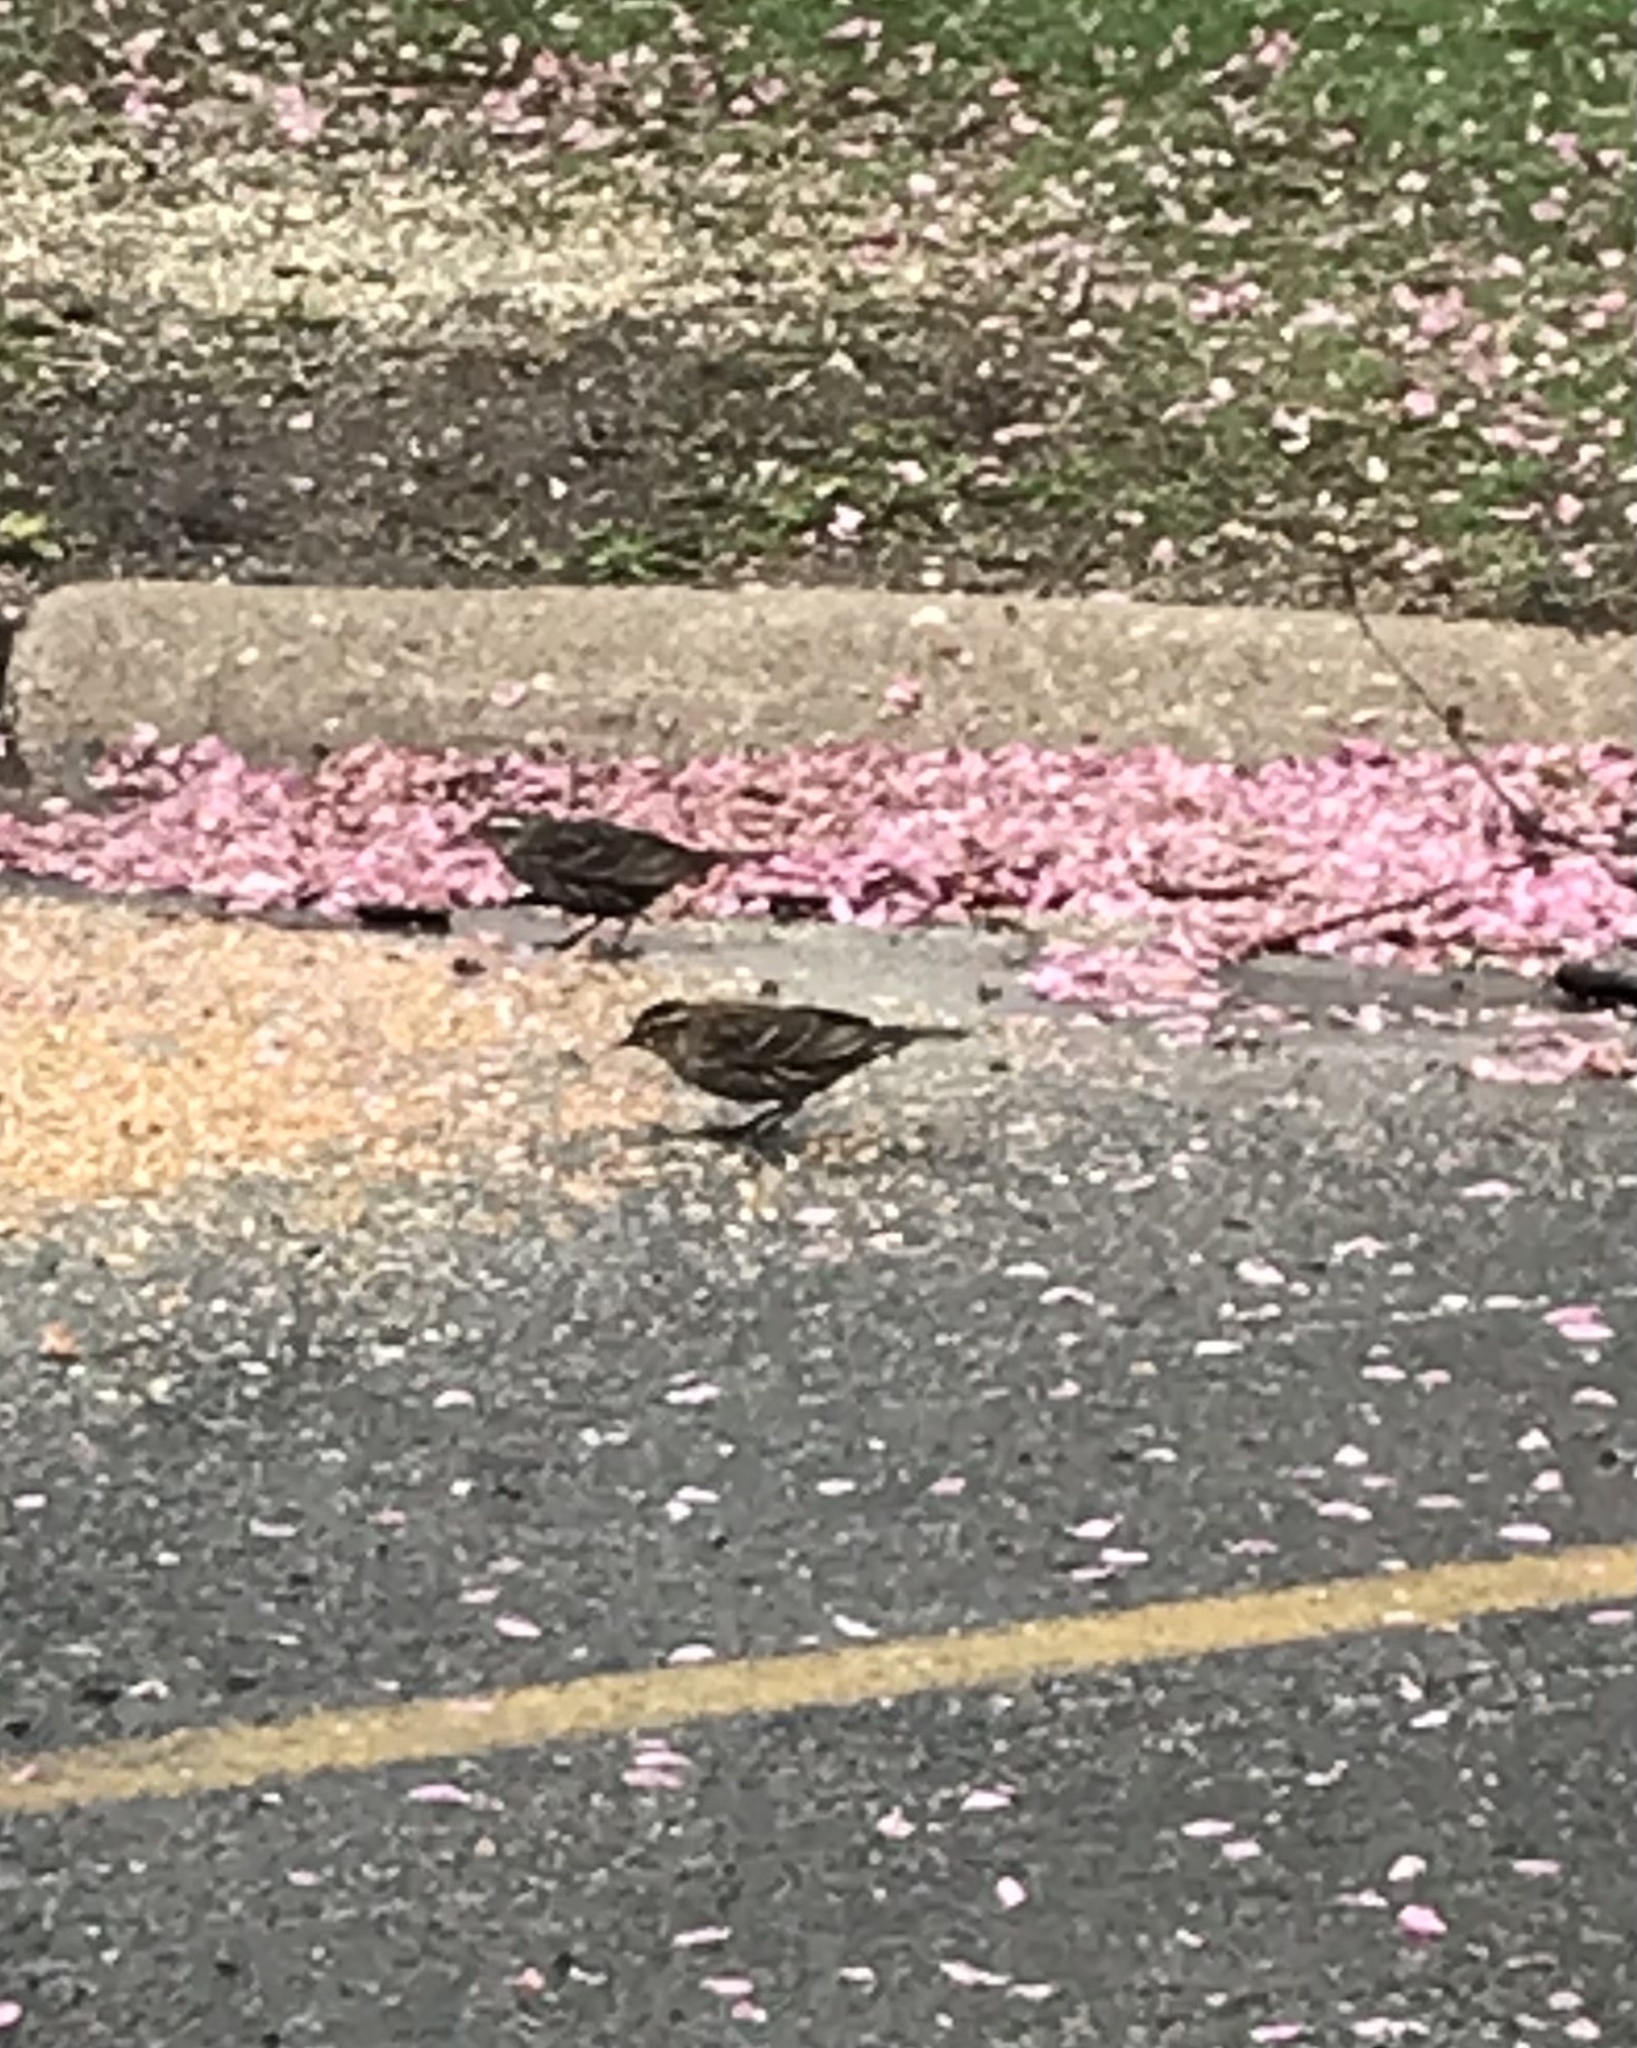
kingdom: Animalia
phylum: Chordata
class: Aves
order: Passeriformes
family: Icteridae
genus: Agelaius
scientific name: Agelaius phoeniceus
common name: Red-winged blackbird
